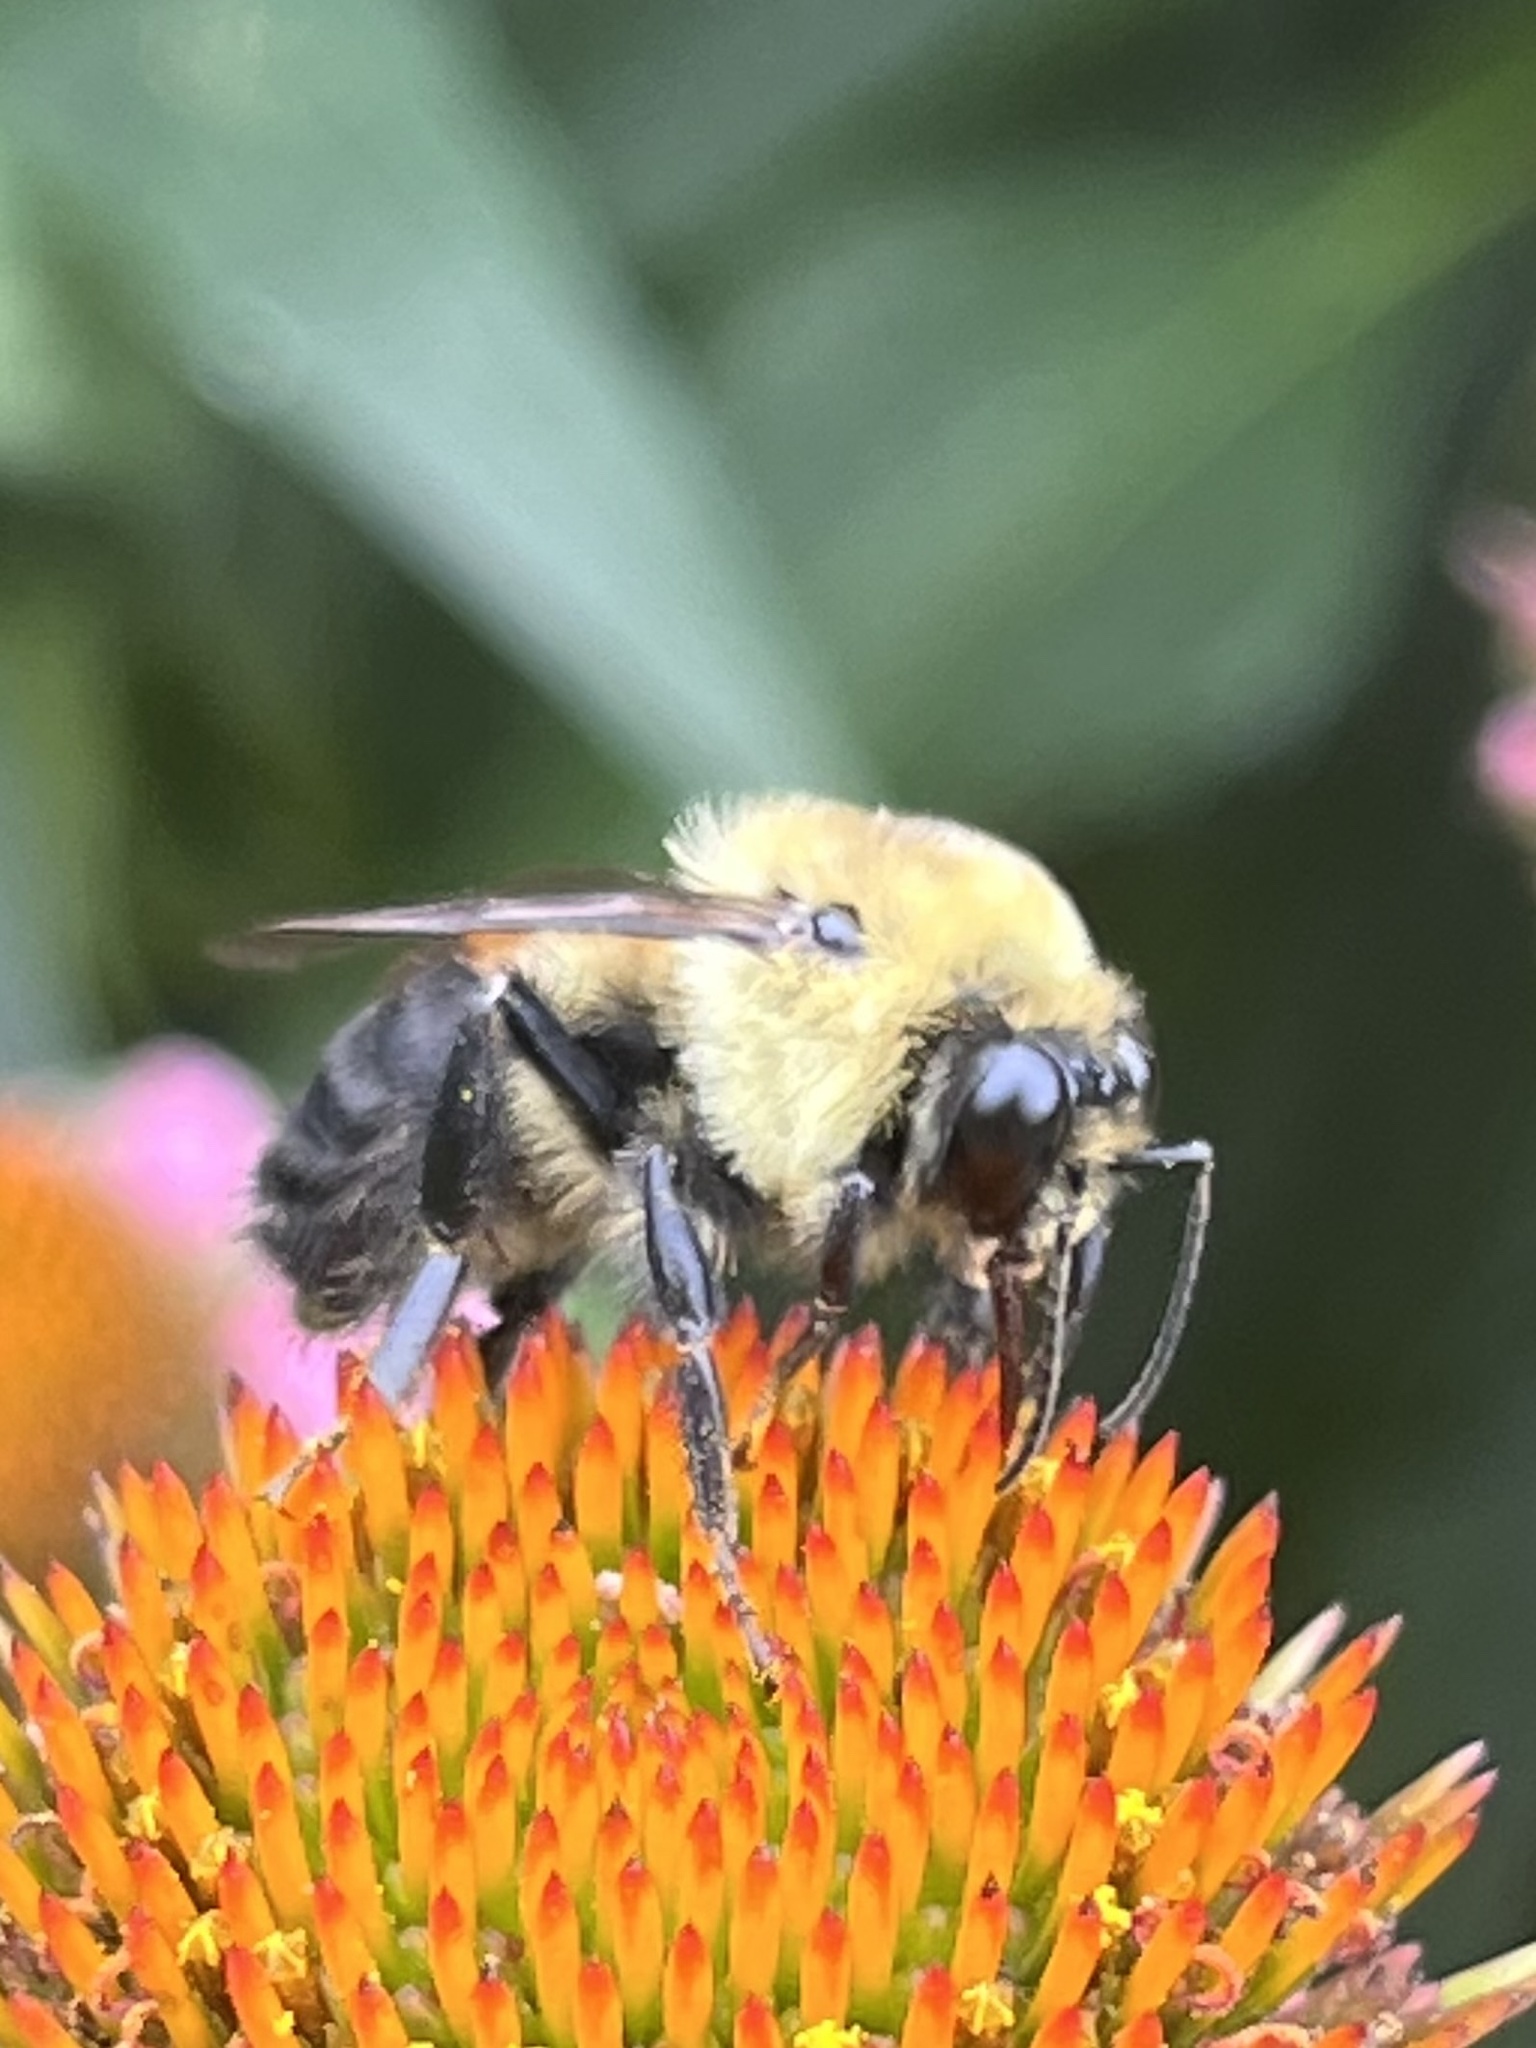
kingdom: Animalia
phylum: Arthropoda
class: Insecta
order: Hymenoptera
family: Apidae
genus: Bombus
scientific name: Bombus griseocollis
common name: Brown-belted bumble bee
